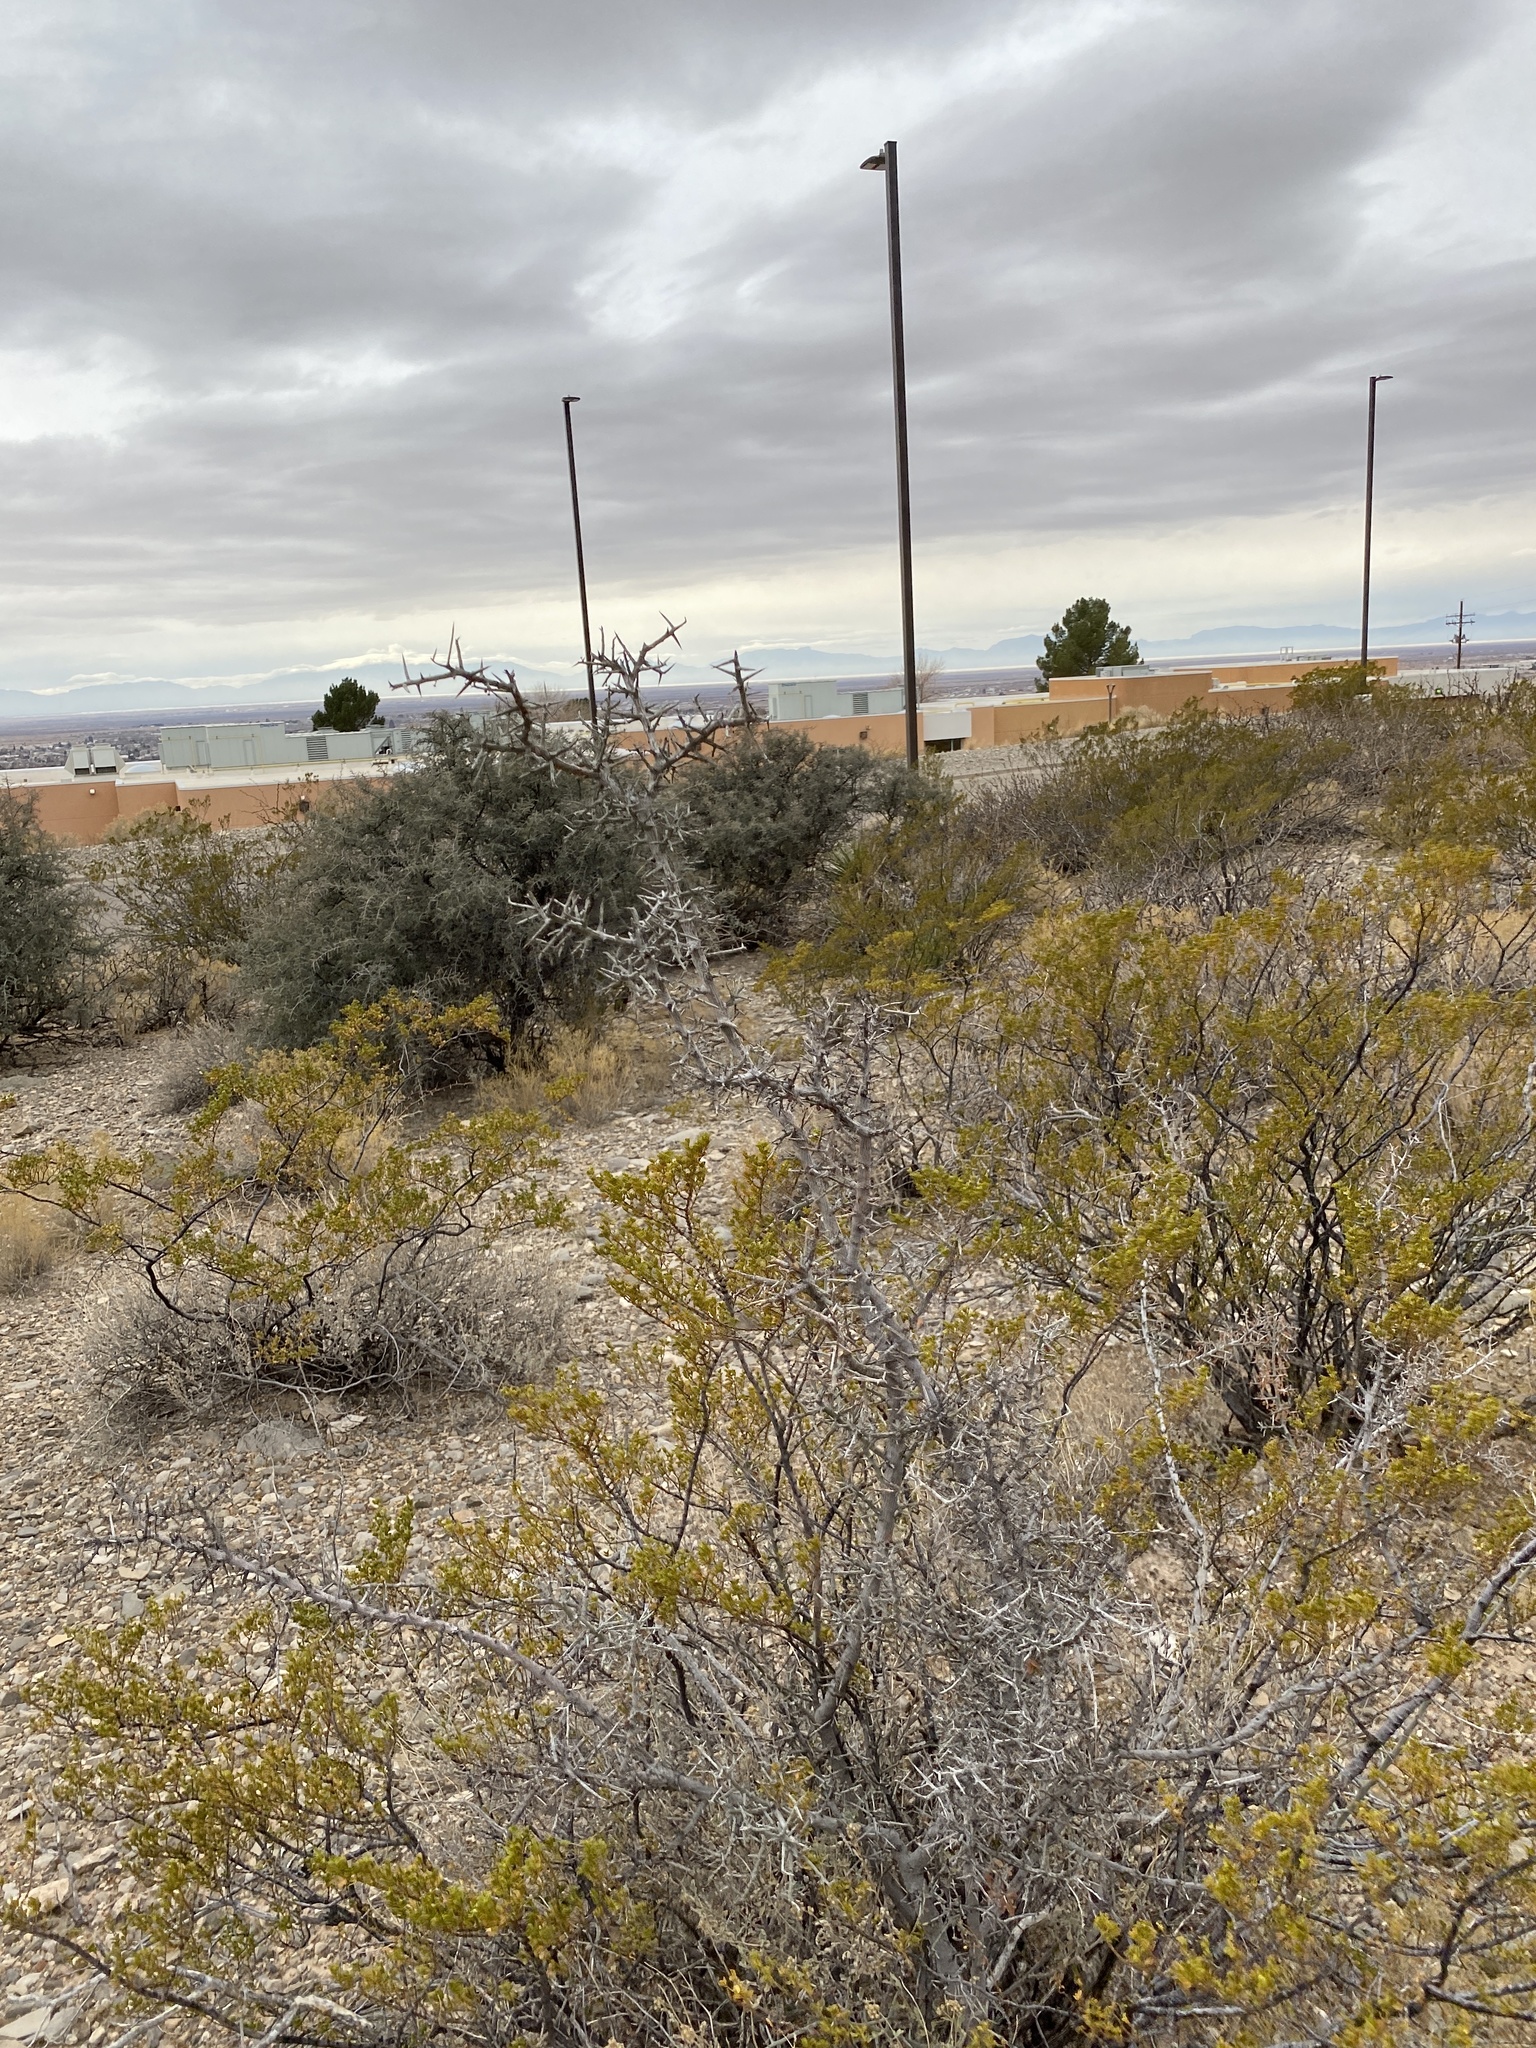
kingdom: Plantae
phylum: Tracheophyta
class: Magnoliopsida
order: Zygophyllales
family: Zygophyllaceae
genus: Larrea
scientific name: Larrea tridentata
